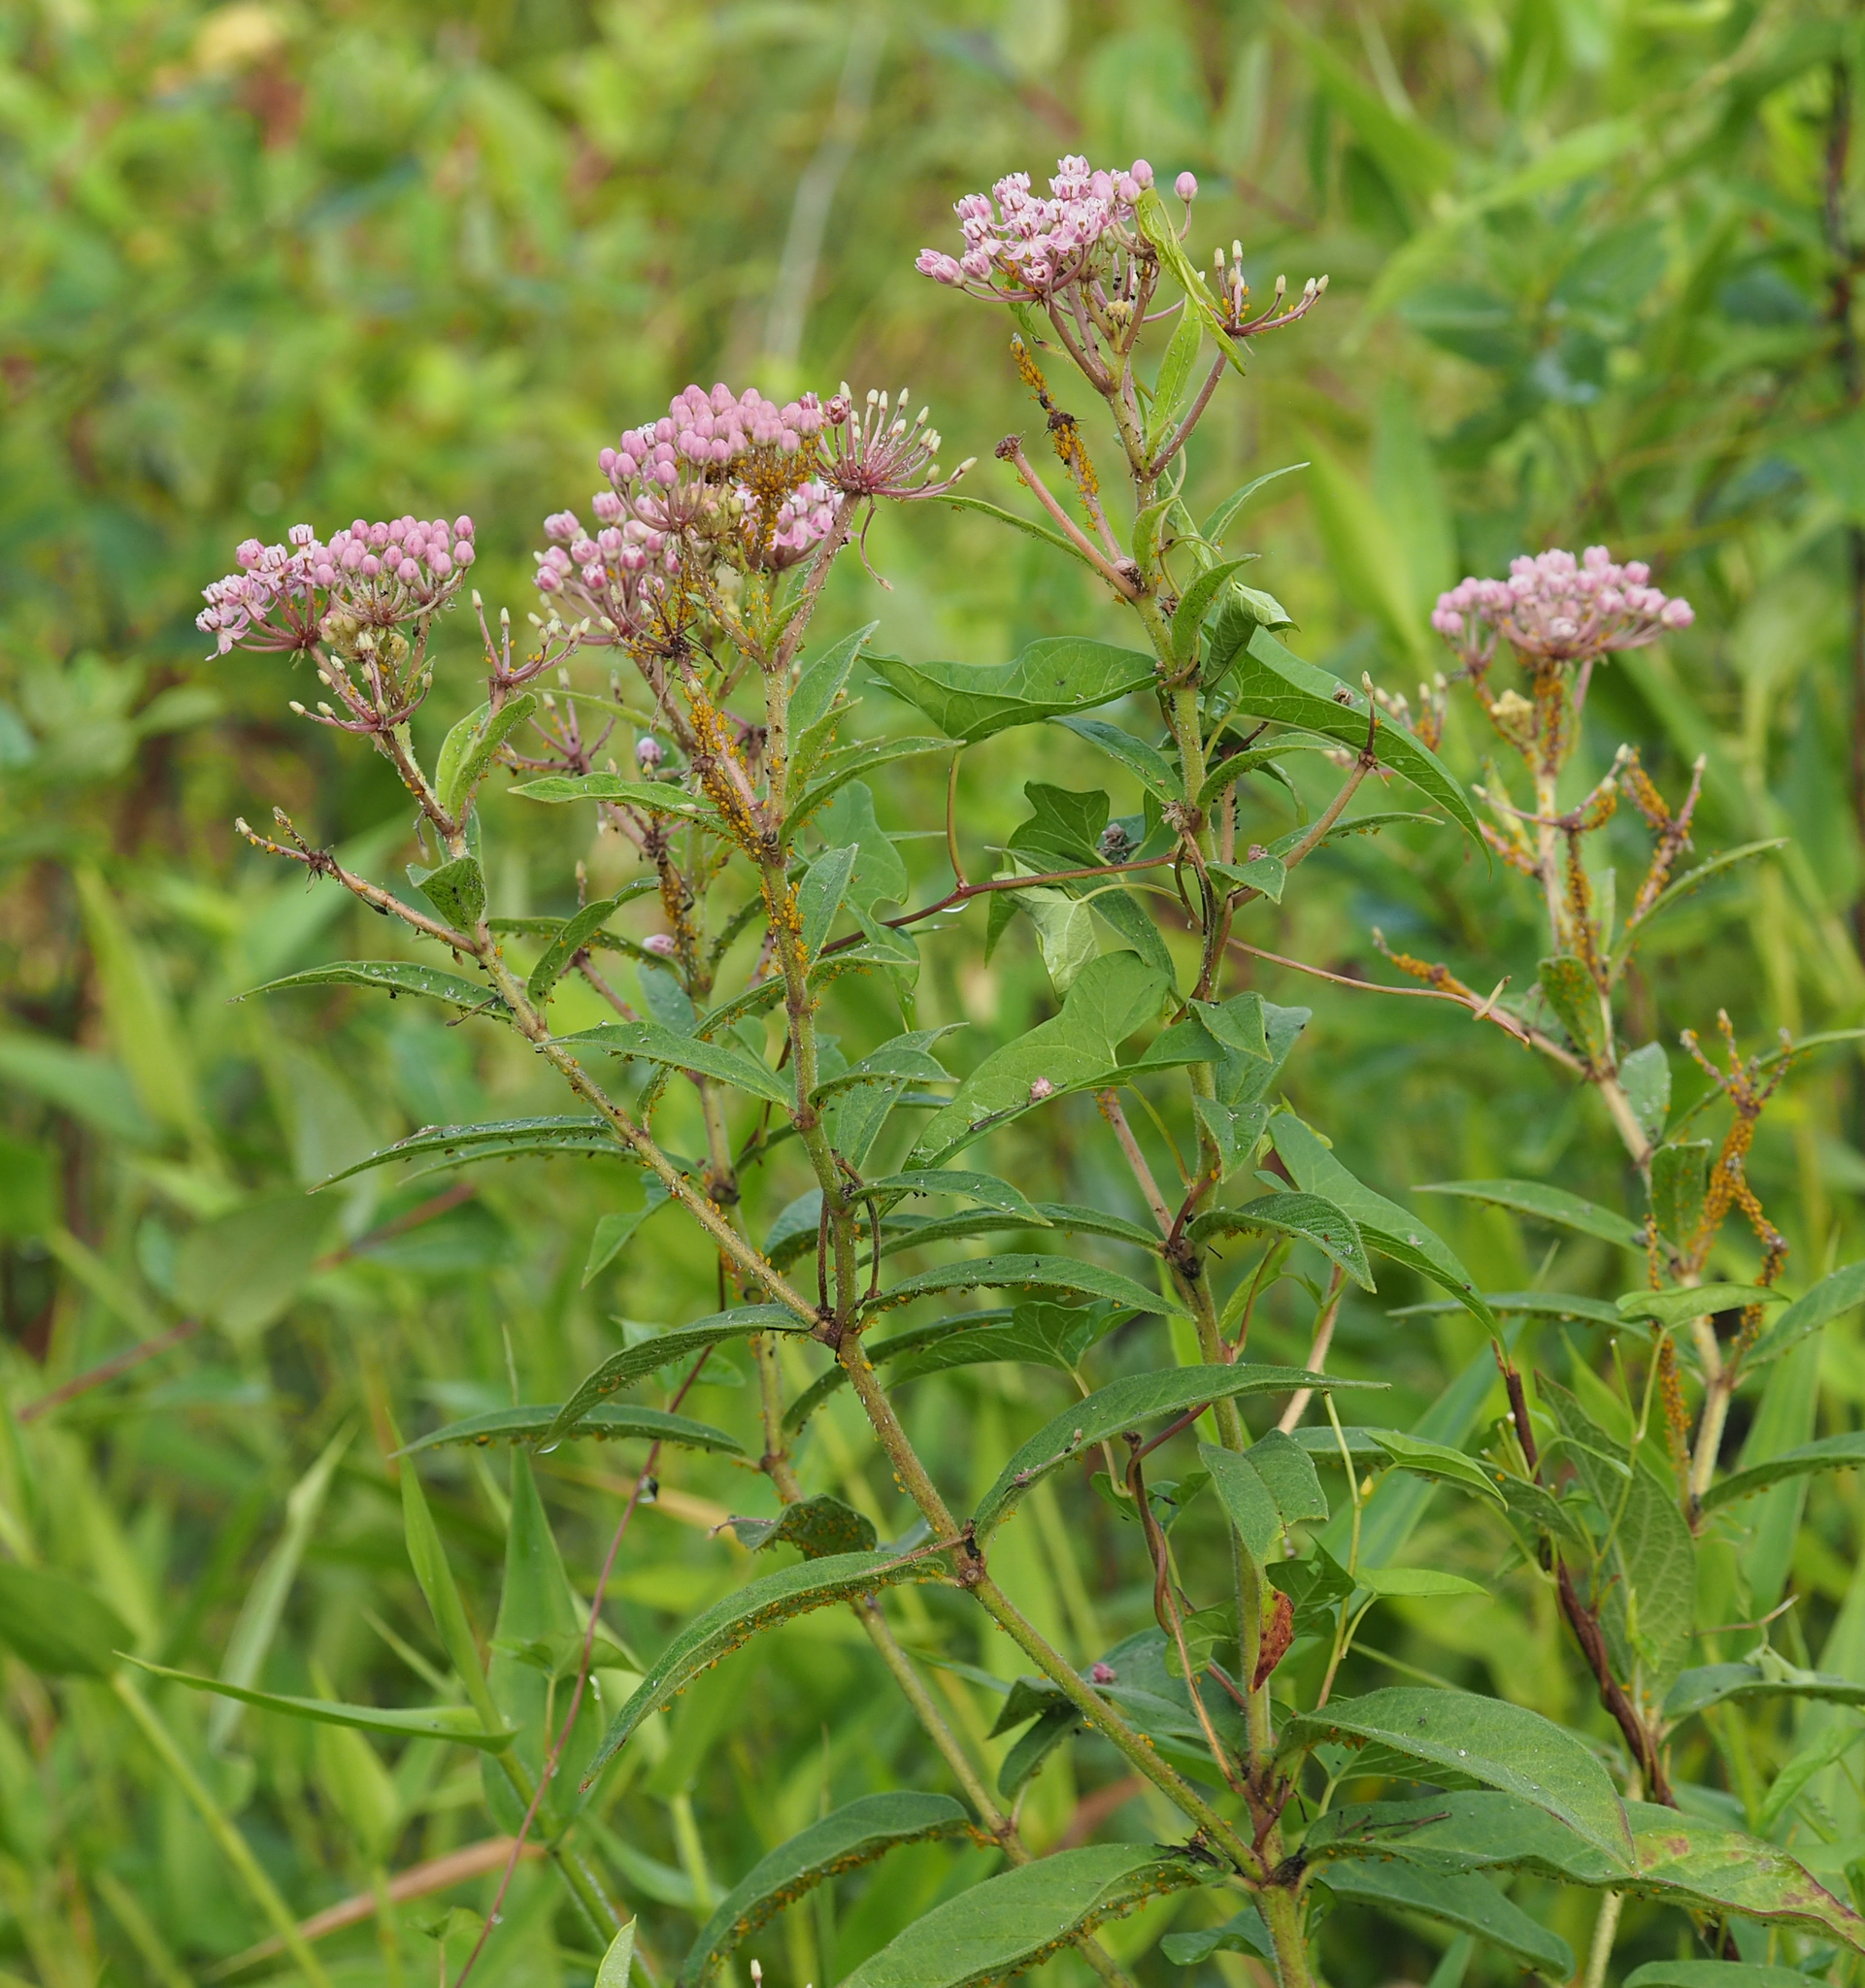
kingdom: Plantae
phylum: Tracheophyta
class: Magnoliopsida
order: Gentianales
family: Apocynaceae
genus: Asclepias
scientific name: Asclepias incarnata
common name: Swamp milkweed
